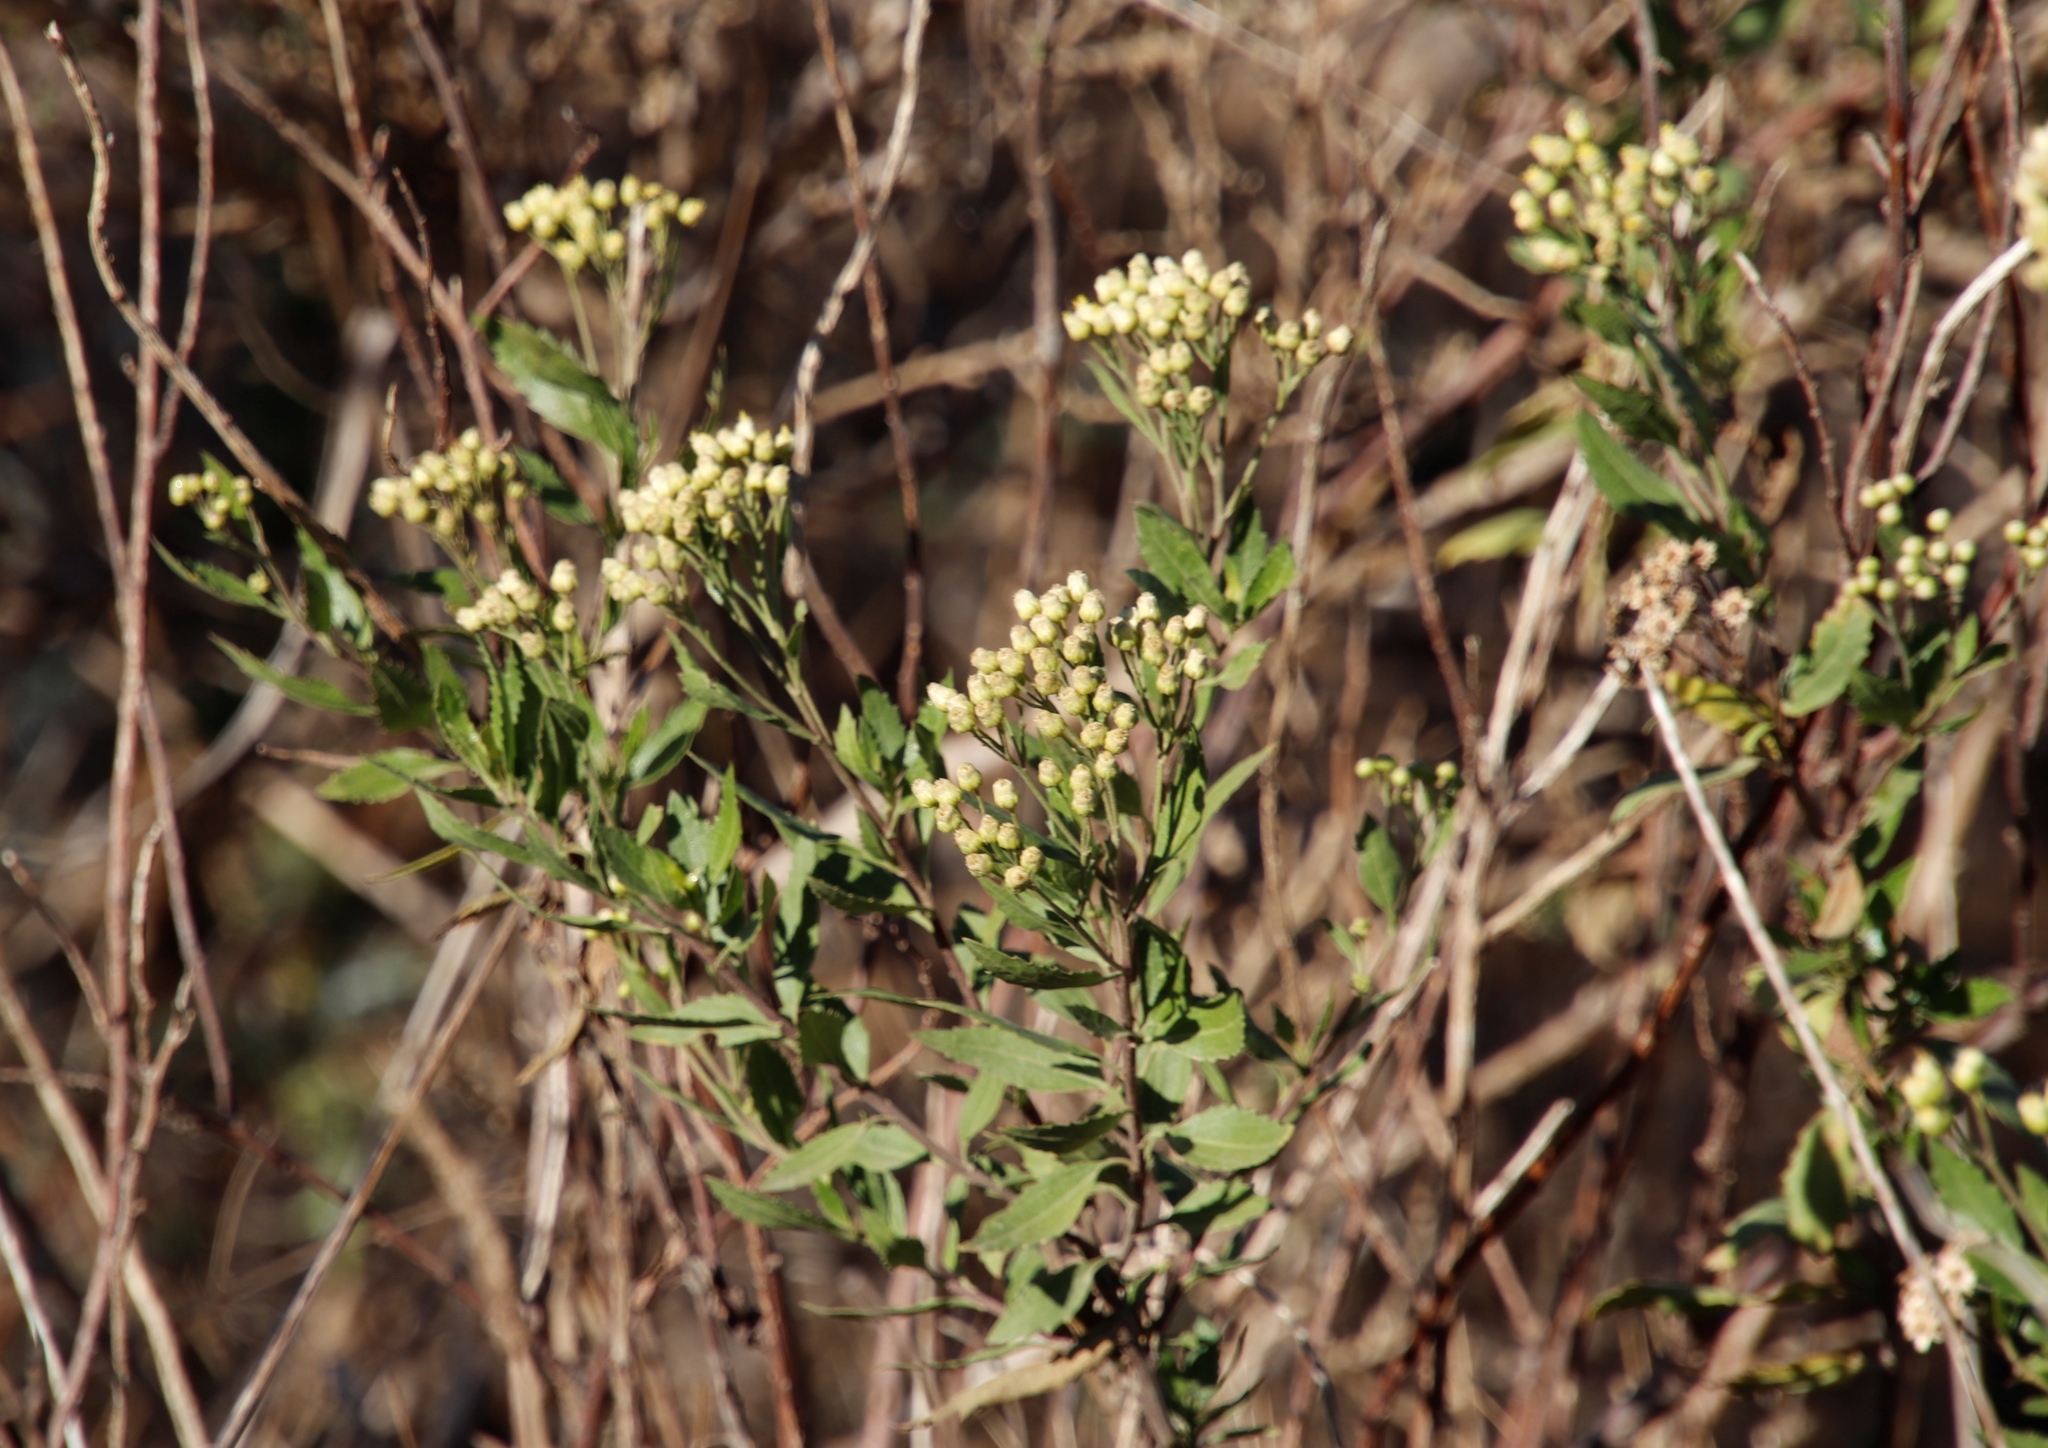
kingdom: Plantae
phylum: Tracheophyta
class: Magnoliopsida
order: Asterales
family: Asteraceae
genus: Nidorella
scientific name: Nidorella ivifolia
